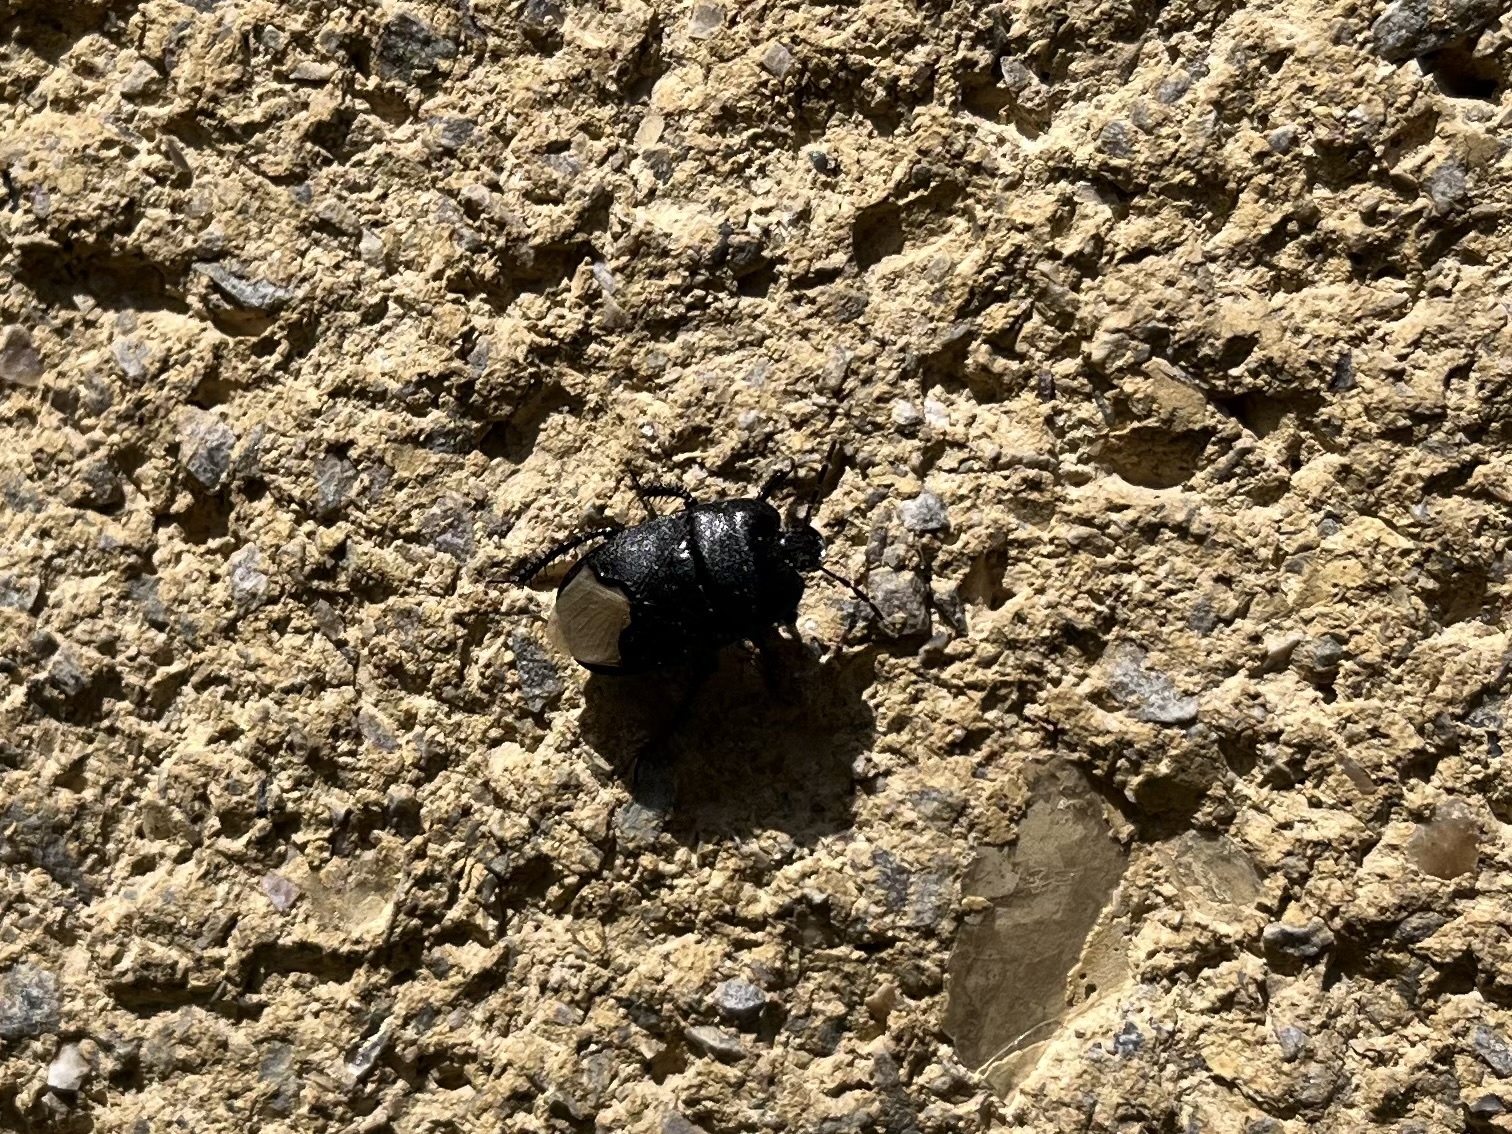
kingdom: Animalia
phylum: Arthropoda
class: Insecta
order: Hemiptera
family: Cydnidae
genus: Cydnus
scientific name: Cydnus aterrimus
